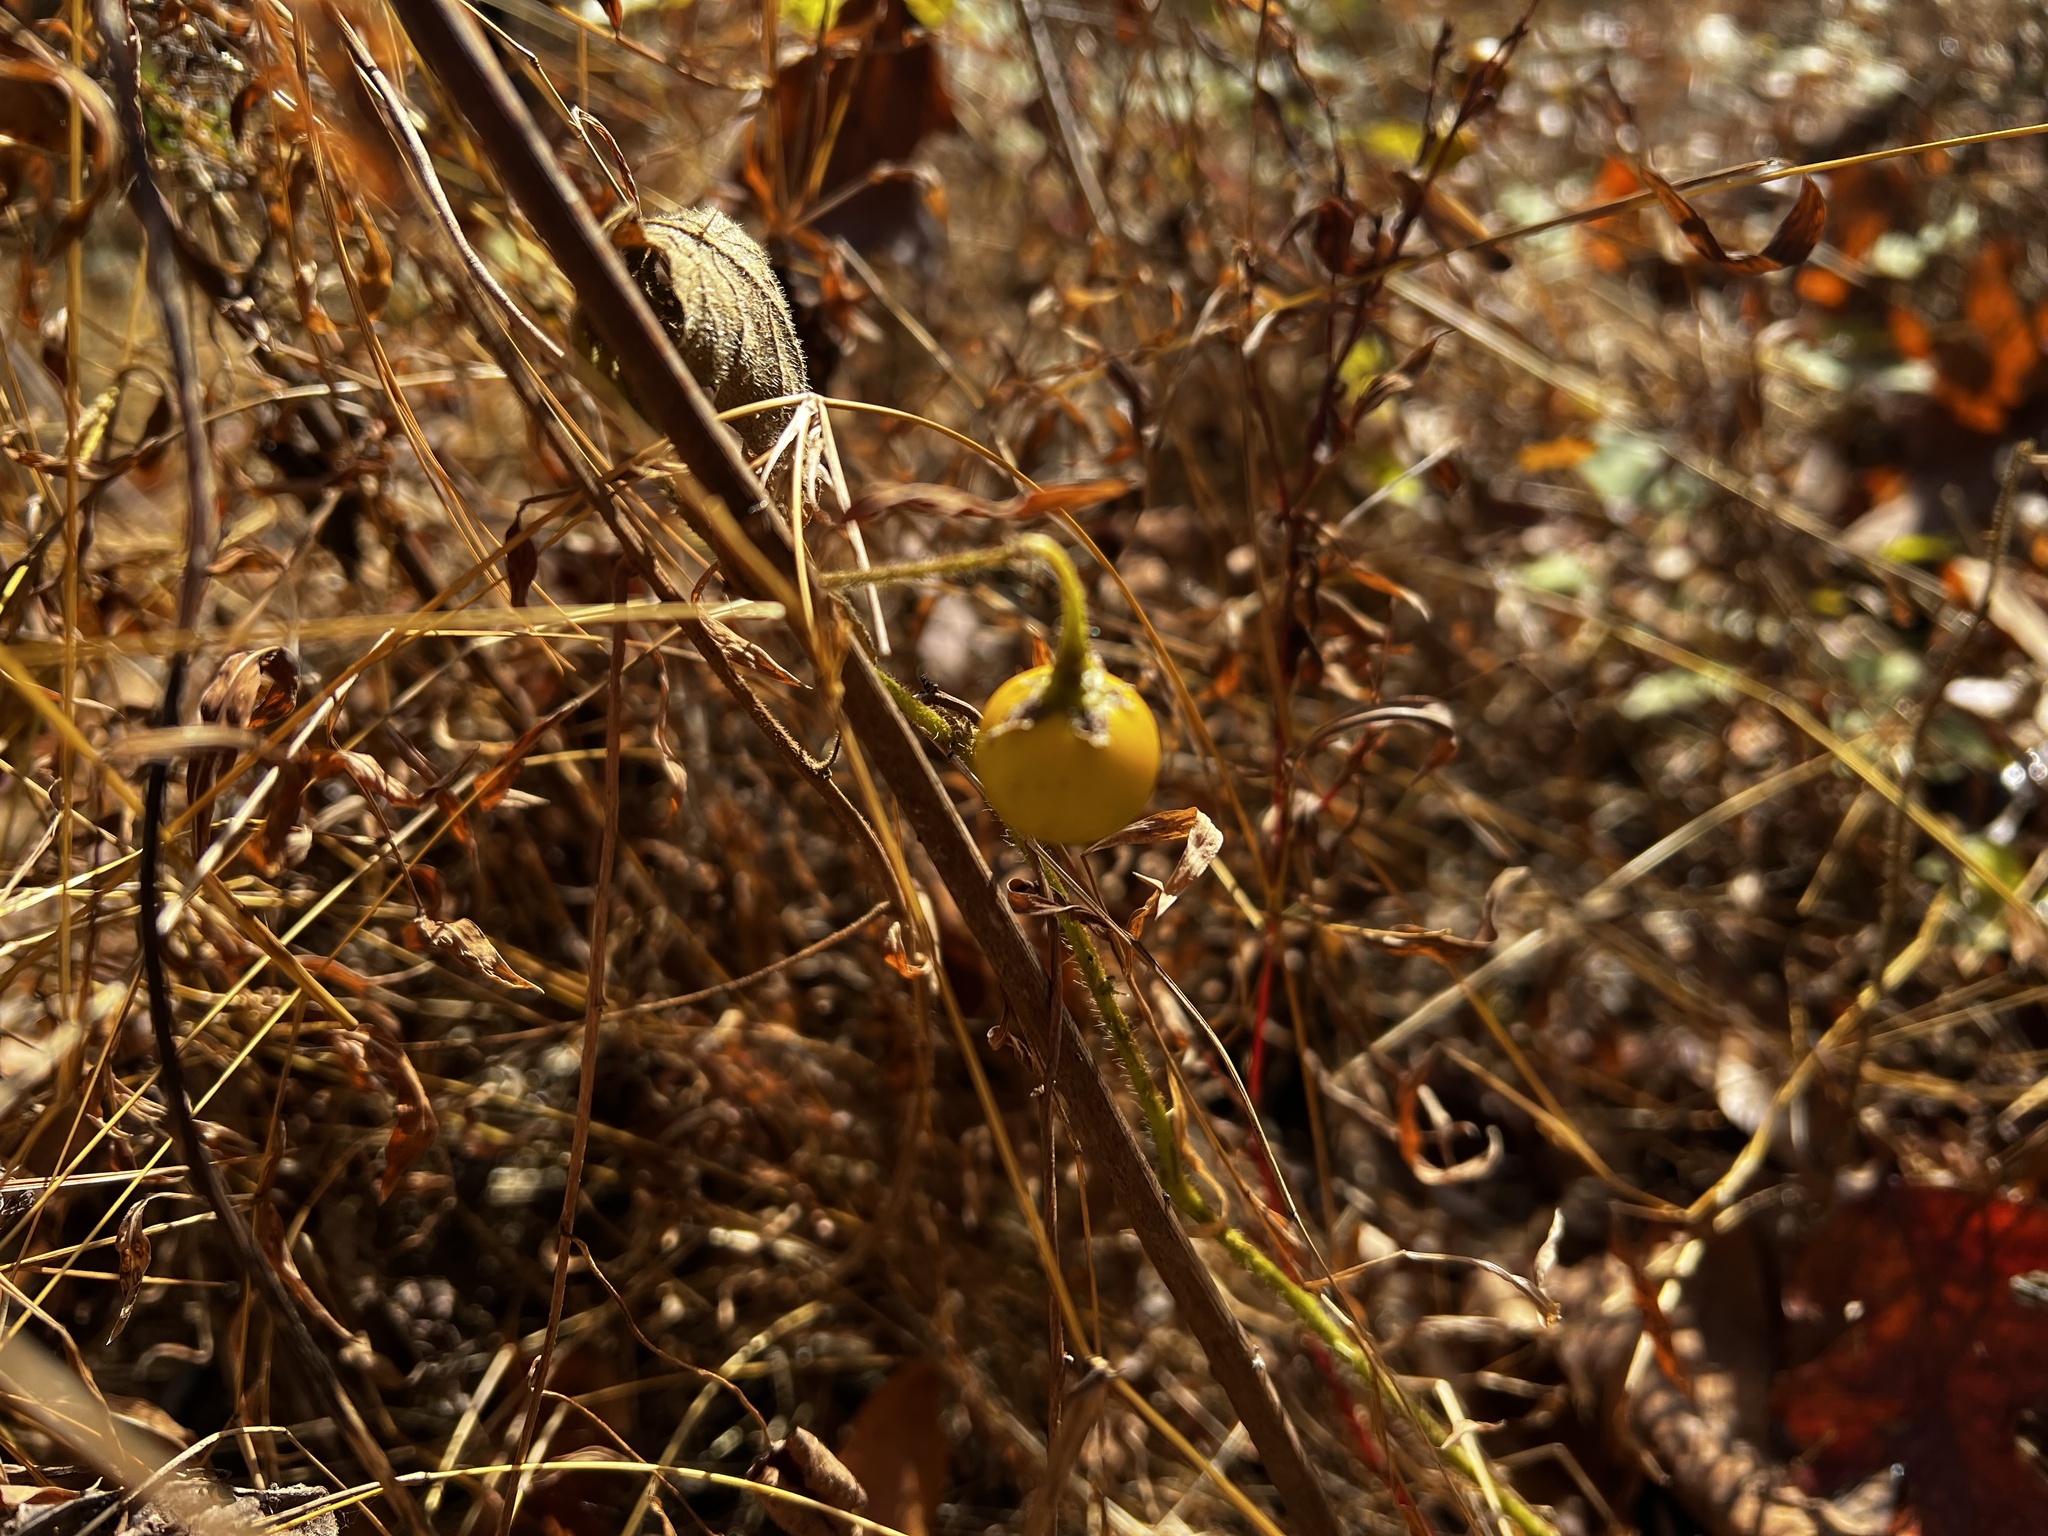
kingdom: Plantae
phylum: Tracheophyta
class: Magnoliopsida
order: Solanales
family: Solanaceae
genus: Solanum
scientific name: Solanum carolinense
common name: Horse-nettle
